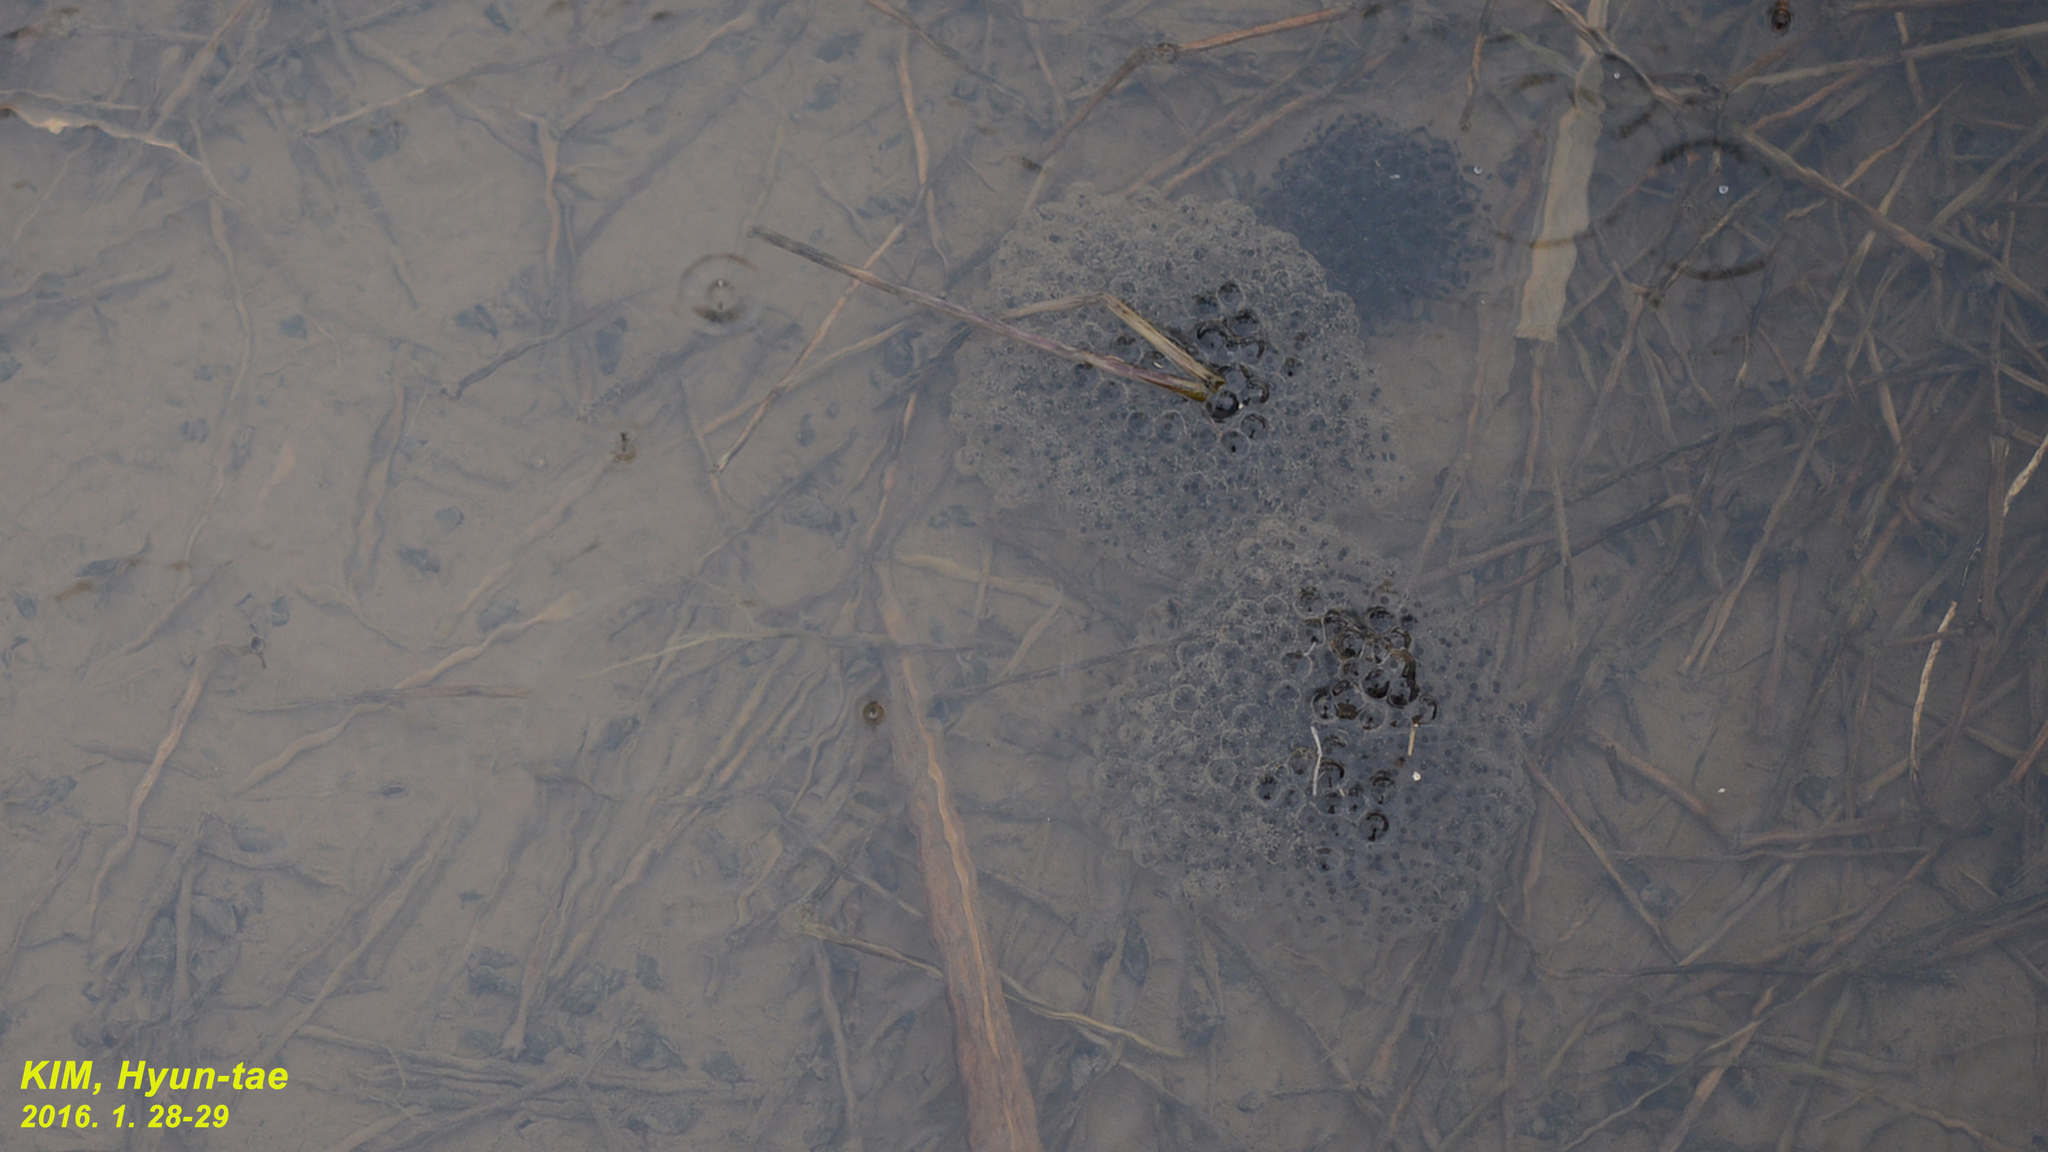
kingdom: Animalia
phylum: Chordata
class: Amphibia
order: Anura
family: Ranidae
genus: Rana
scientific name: Rana uenoi
